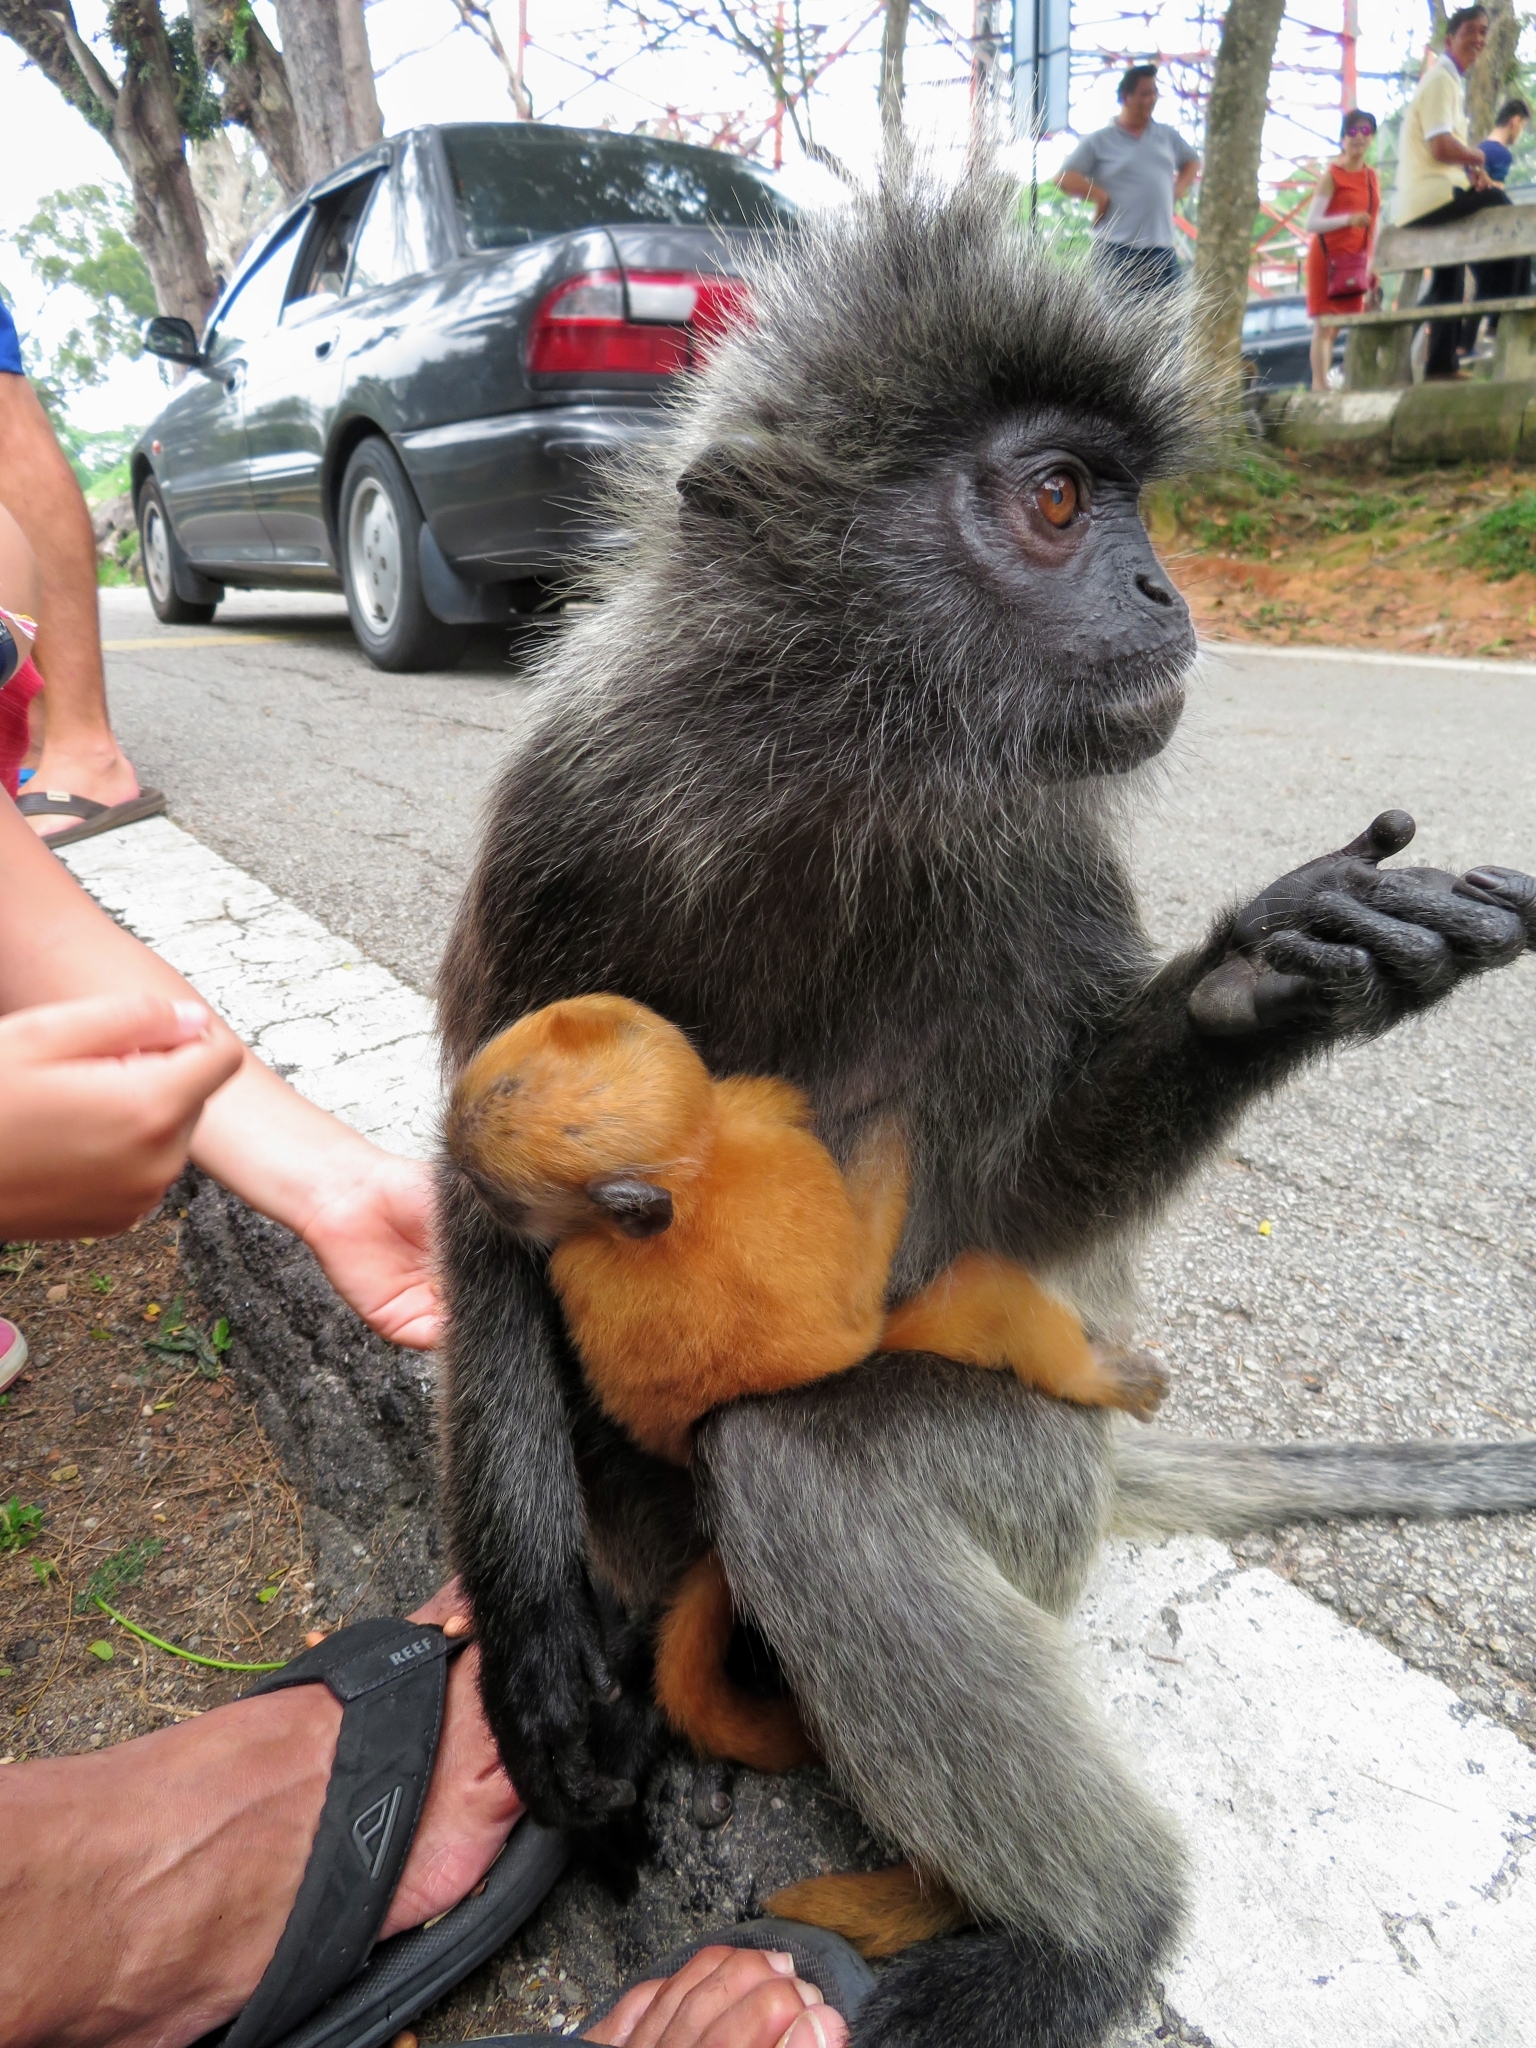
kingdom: Animalia
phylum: Chordata
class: Mammalia
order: Primates
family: Cercopithecidae
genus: Trachypithecus
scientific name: Trachypithecus selangorensis
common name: Selangor silvery langur
